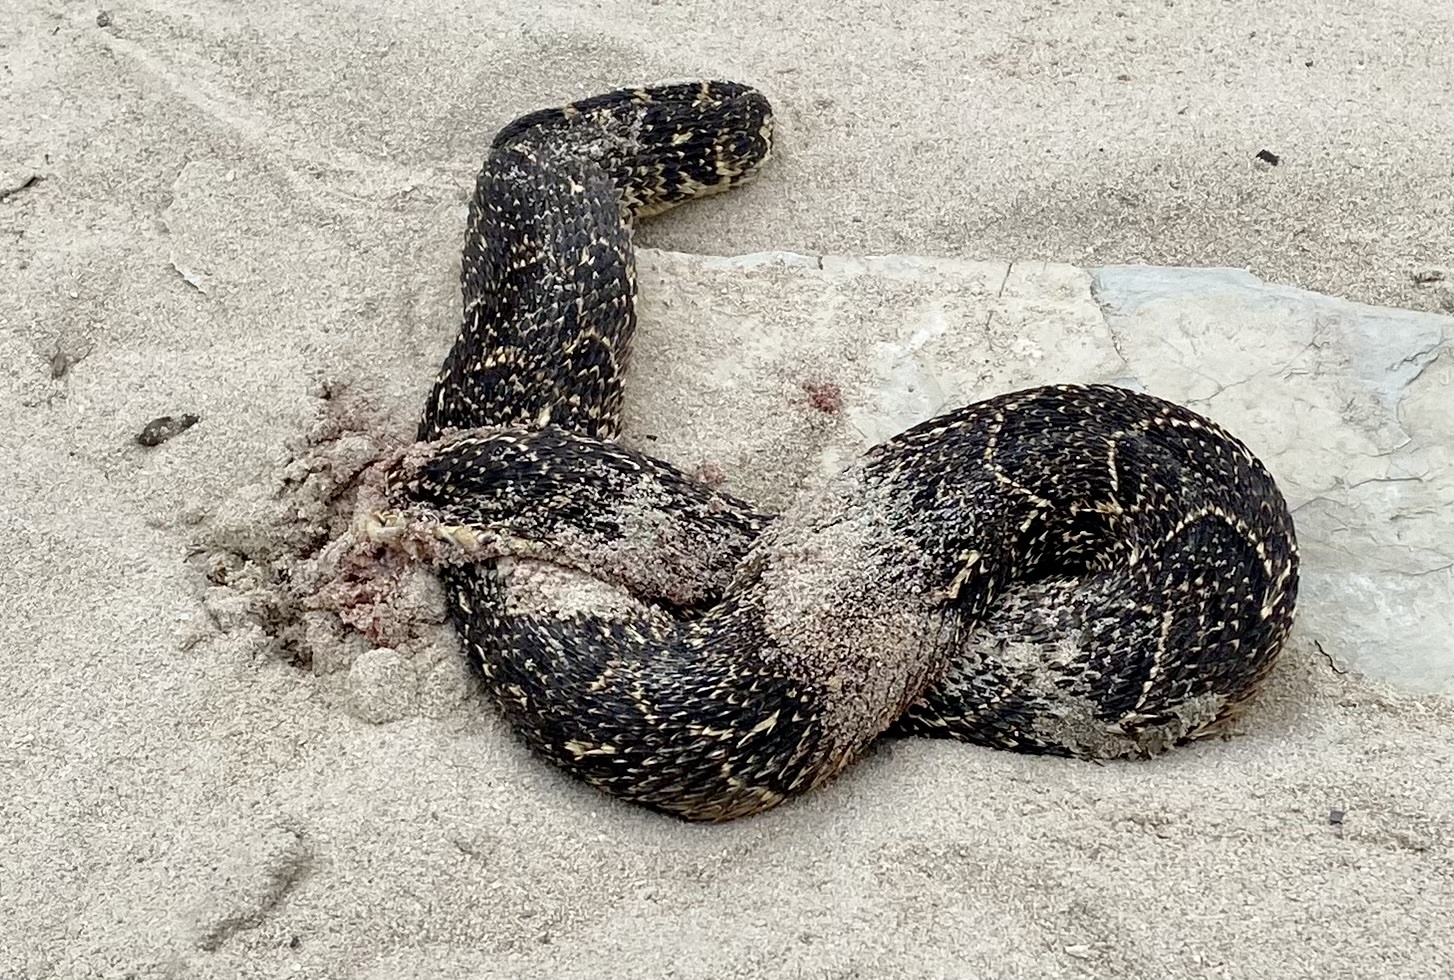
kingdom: Animalia
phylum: Chordata
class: Squamata
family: Viperidae
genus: Bitis
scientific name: Bitis arietans
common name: Puff adder
